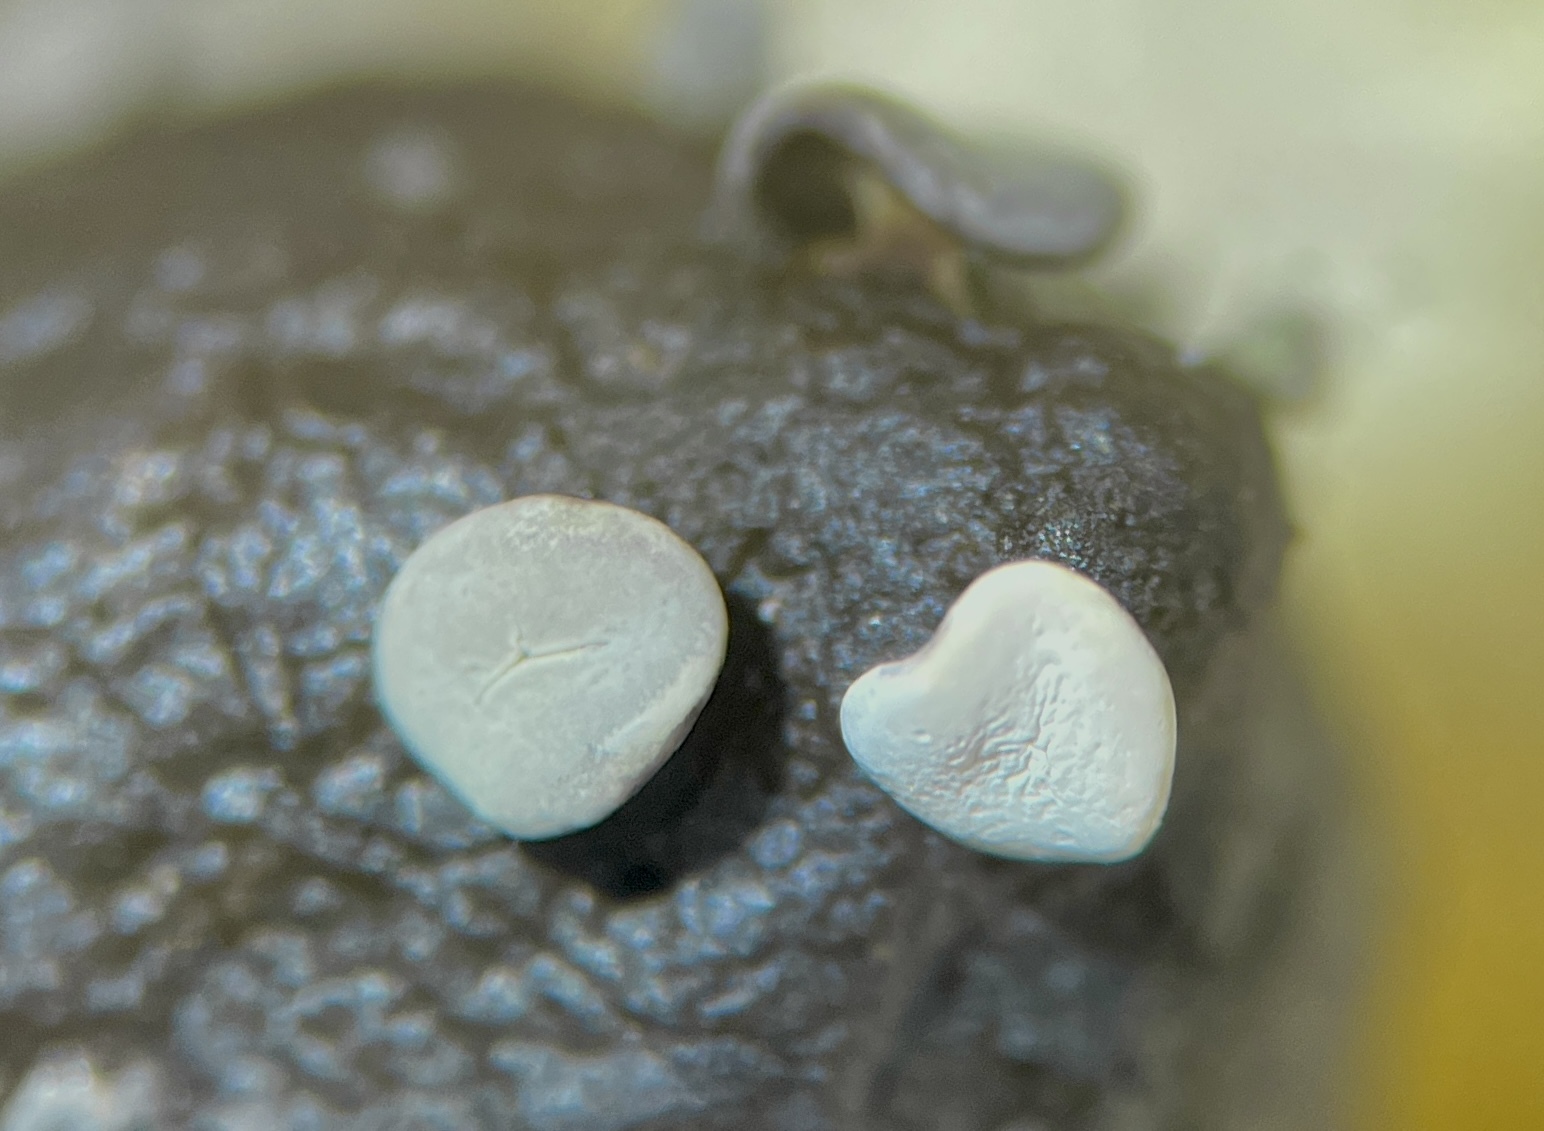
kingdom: Protozoa
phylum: Mycetozoa
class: Myxomycetes
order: Physarales
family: Didymiaceae
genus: Diderma
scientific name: Diderma hemisphaericum
